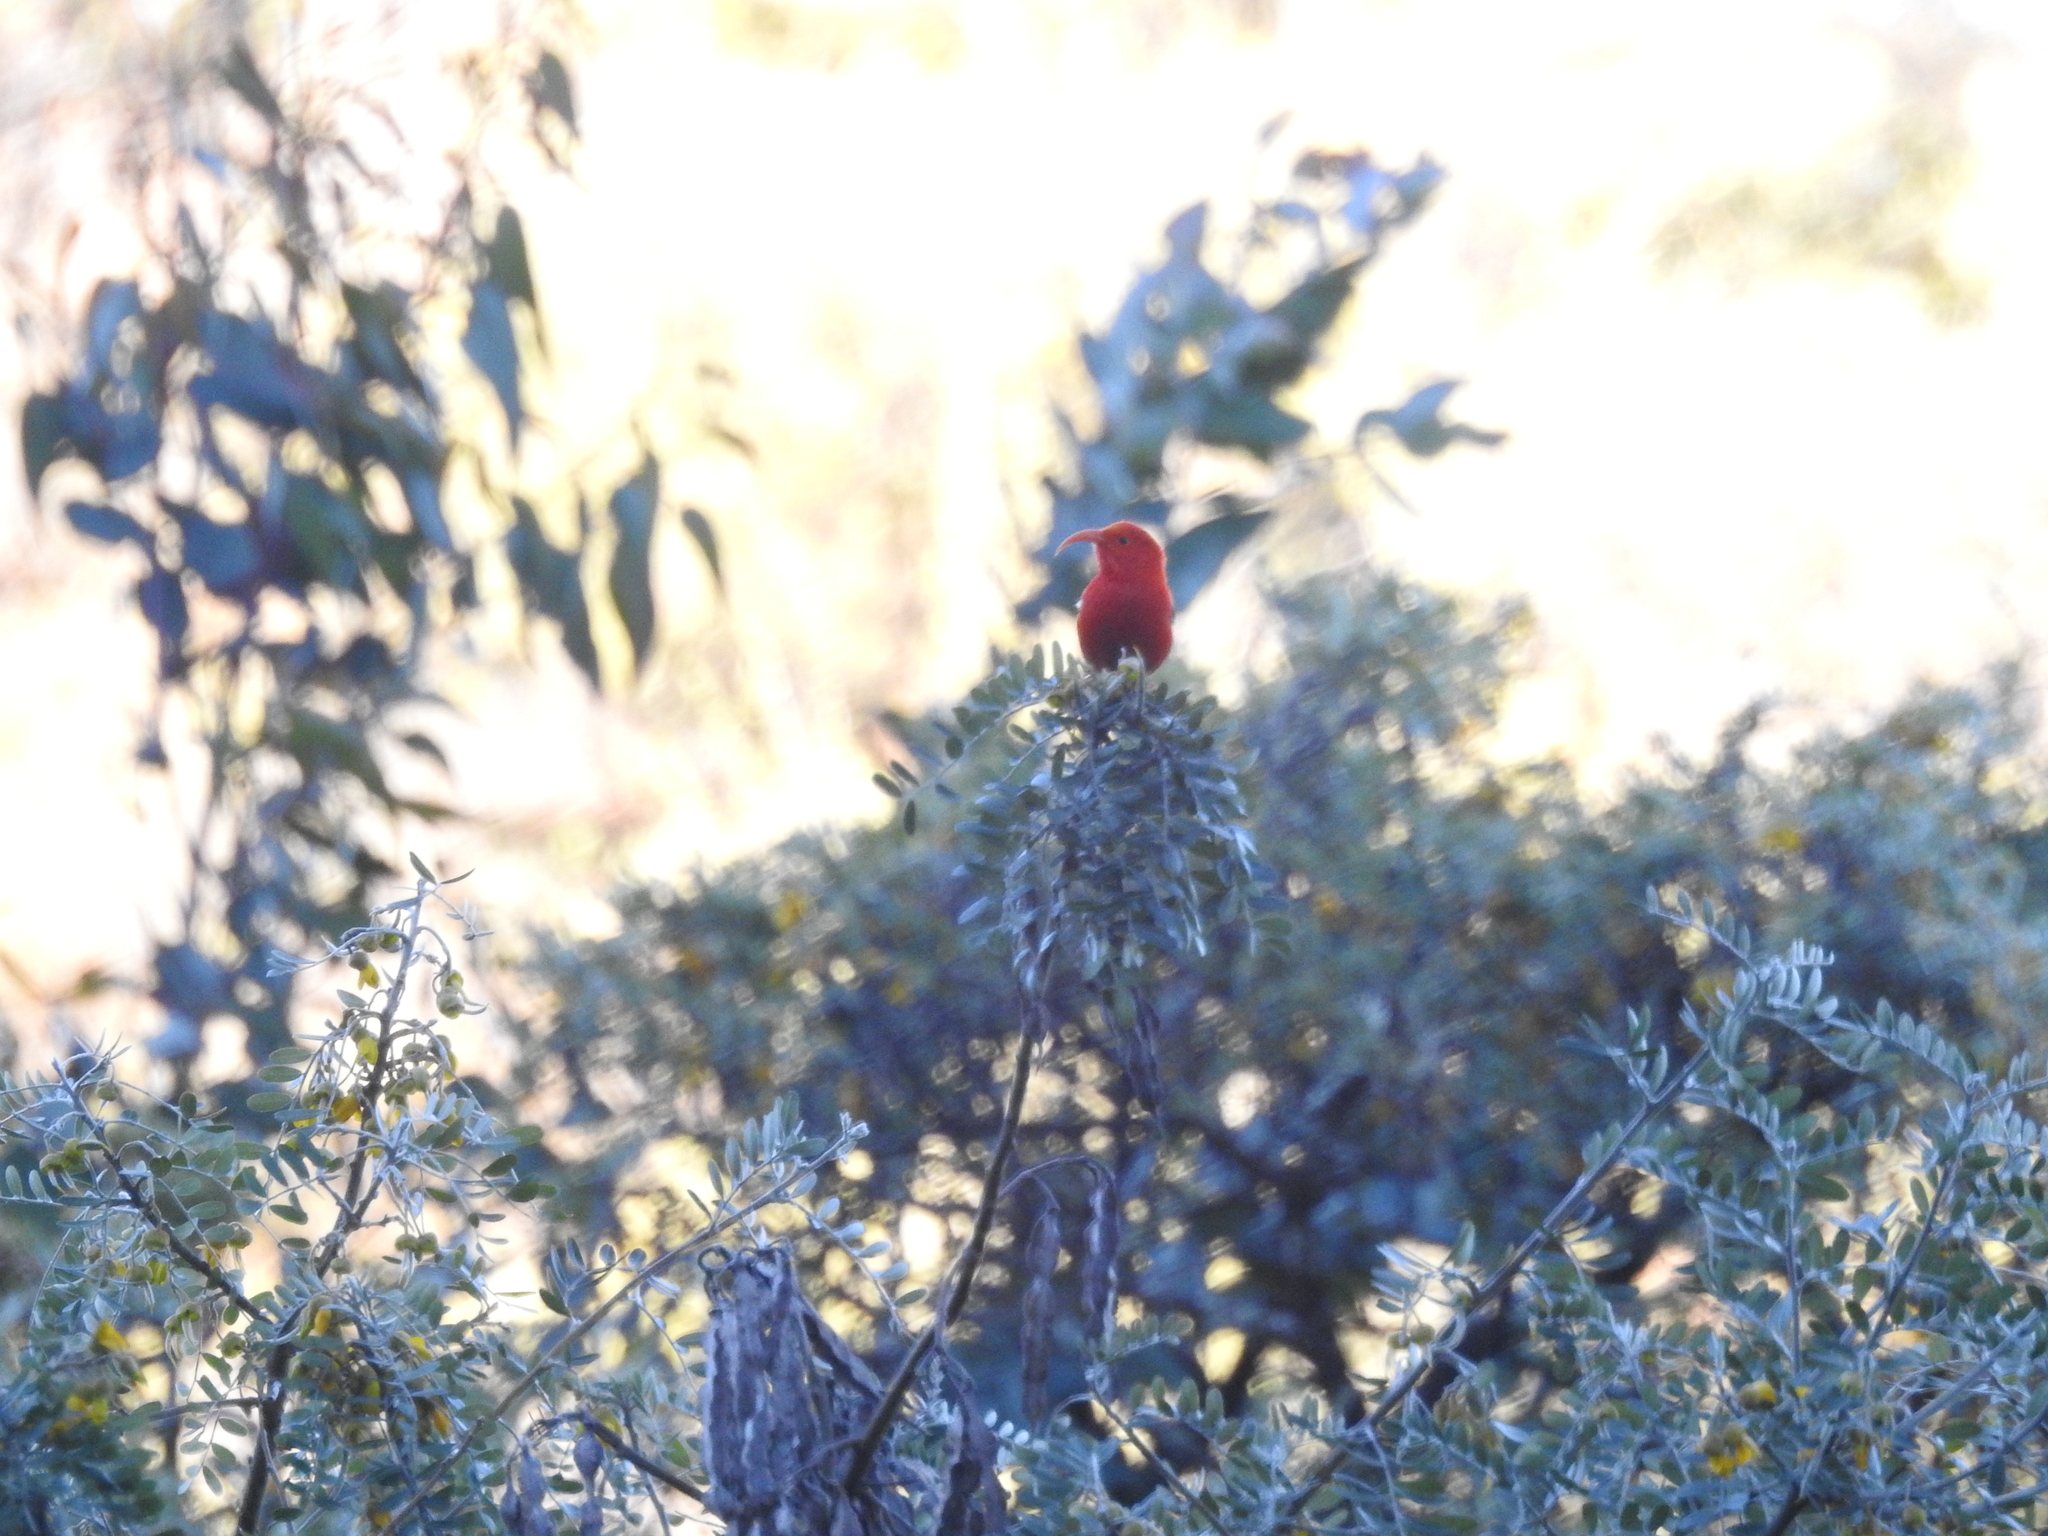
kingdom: Animalia
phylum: Chordata
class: Aves
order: Passeriformes
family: Fringillidae
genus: Vestiaria
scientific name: Vestiaria coccinea
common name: Iiwi
